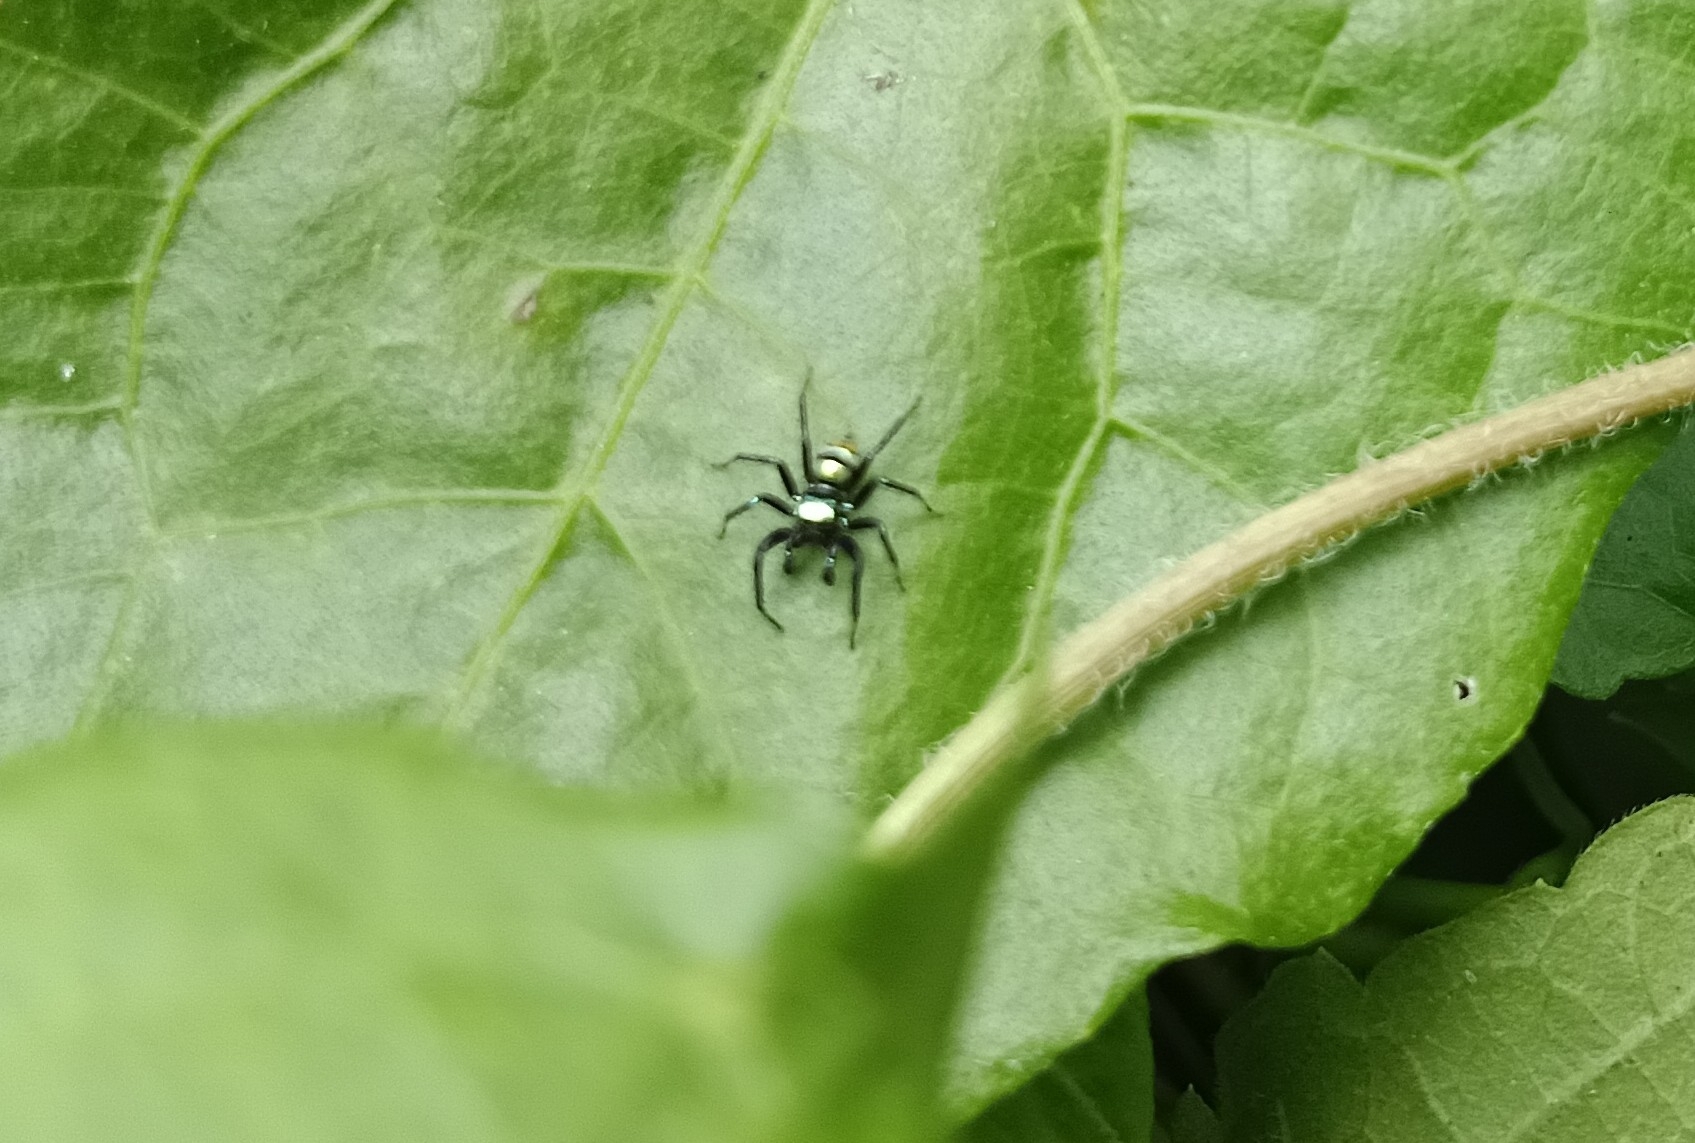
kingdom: Animalia
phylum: Arthropoda
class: Arachnida
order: Araneae
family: Salticidae
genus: Phintella
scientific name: Phintella vittata
